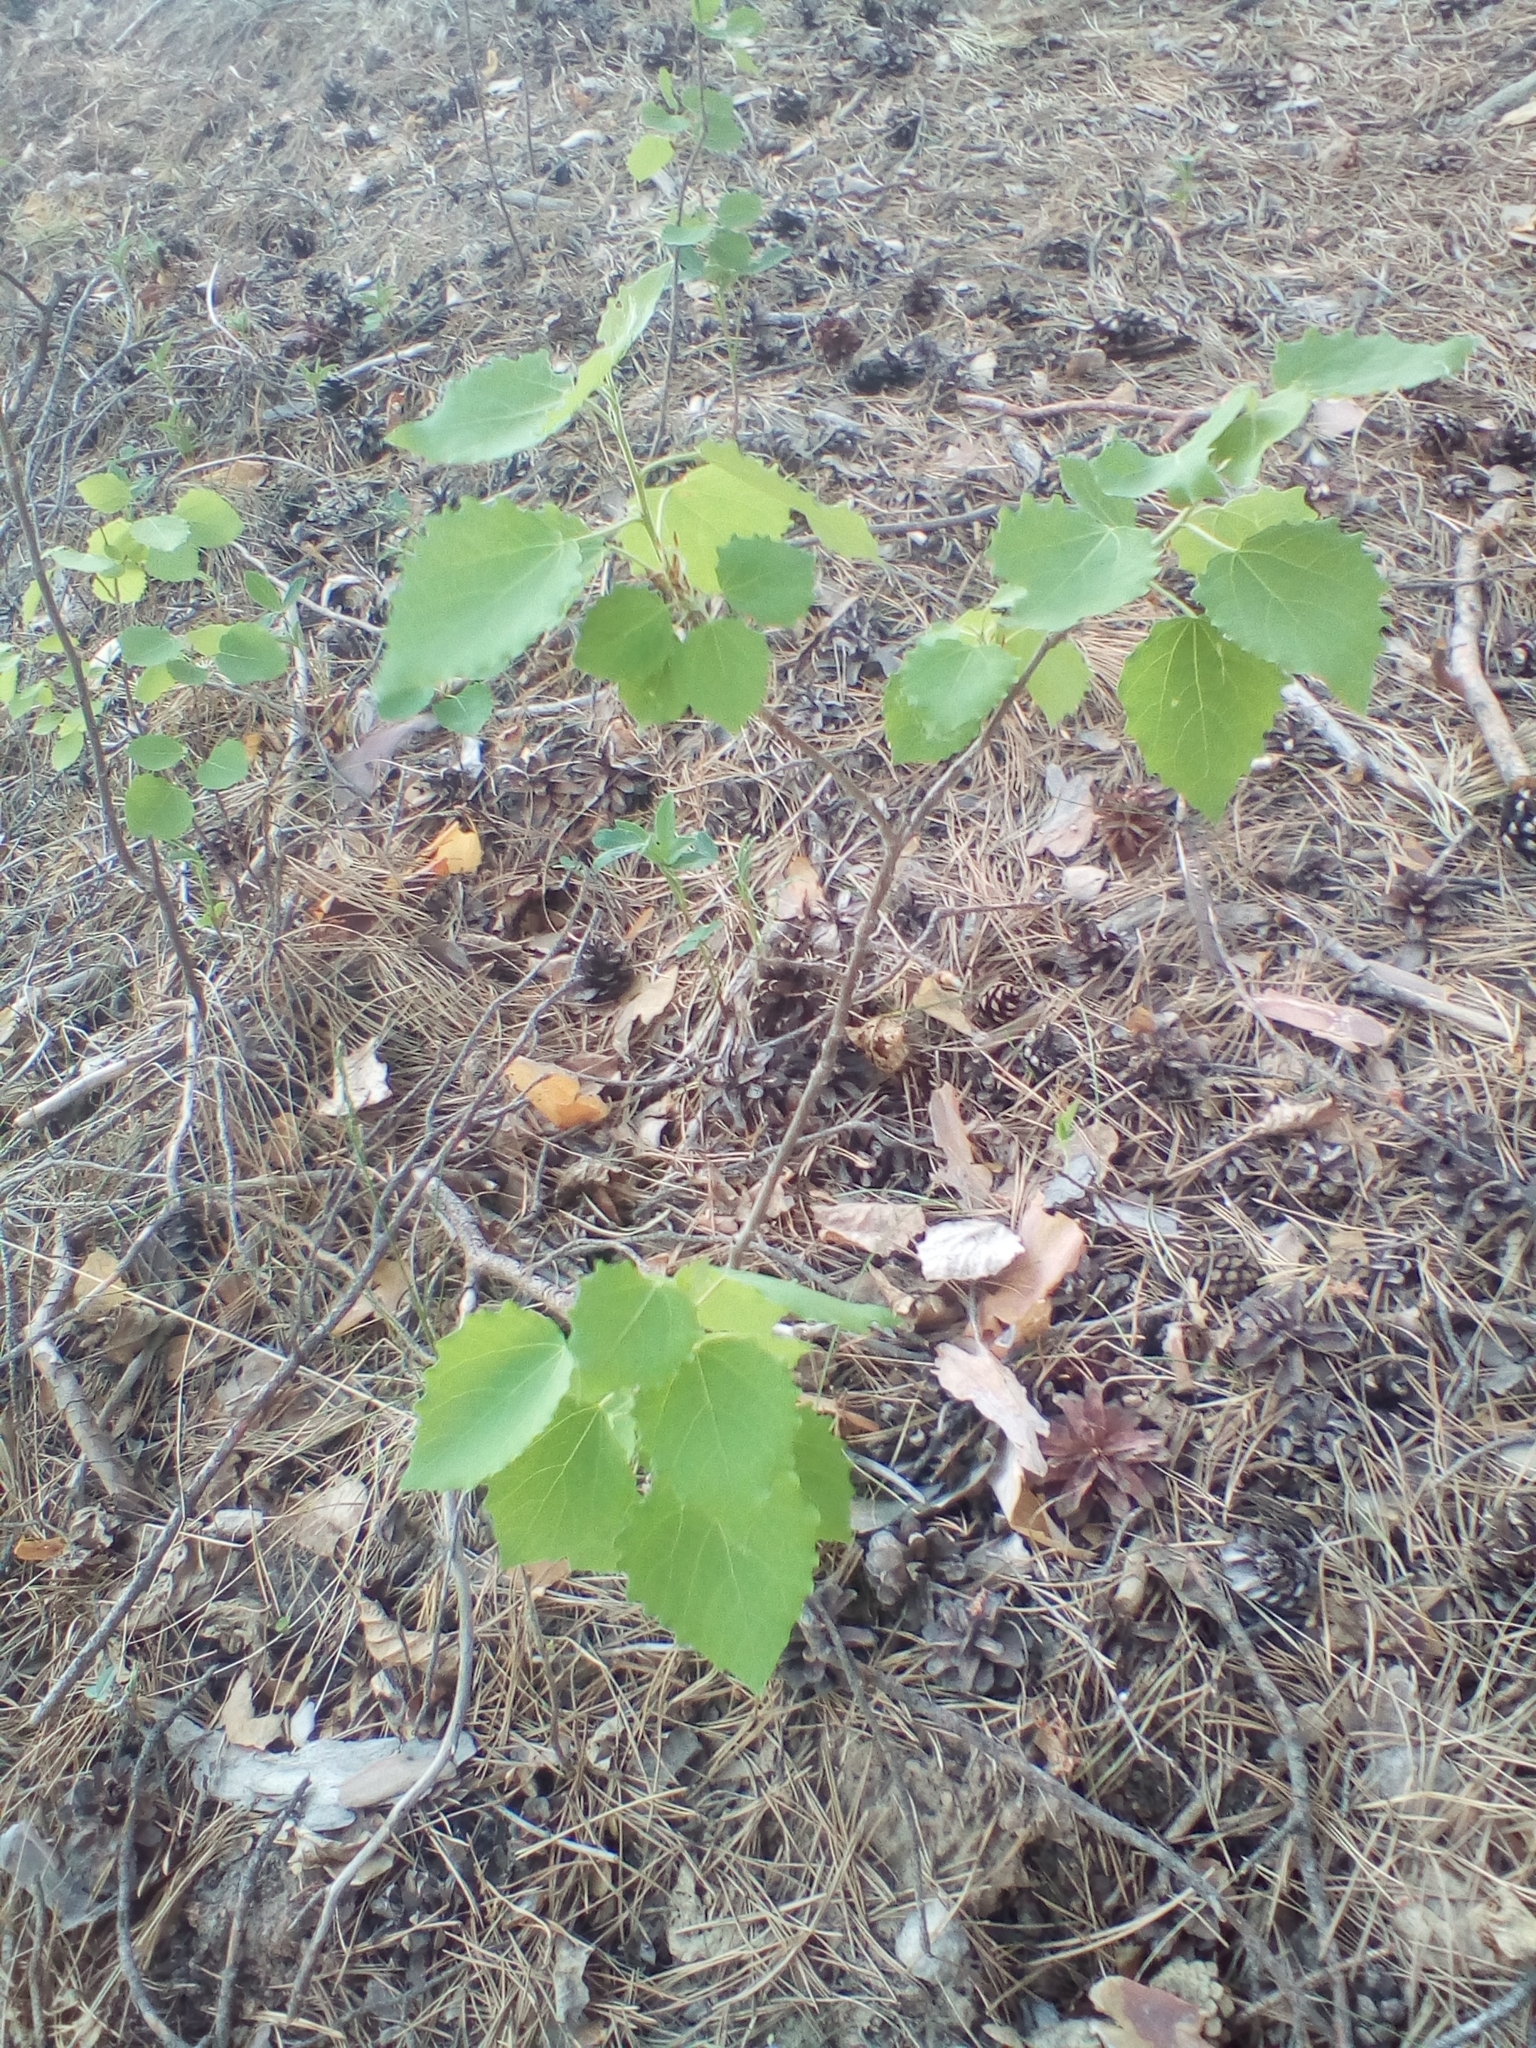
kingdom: Plantae
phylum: Tracheophyta
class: Magnoliopsida
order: Malpighiales
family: Salicaceae
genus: Populus
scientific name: Populus tremula
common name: European aspen
